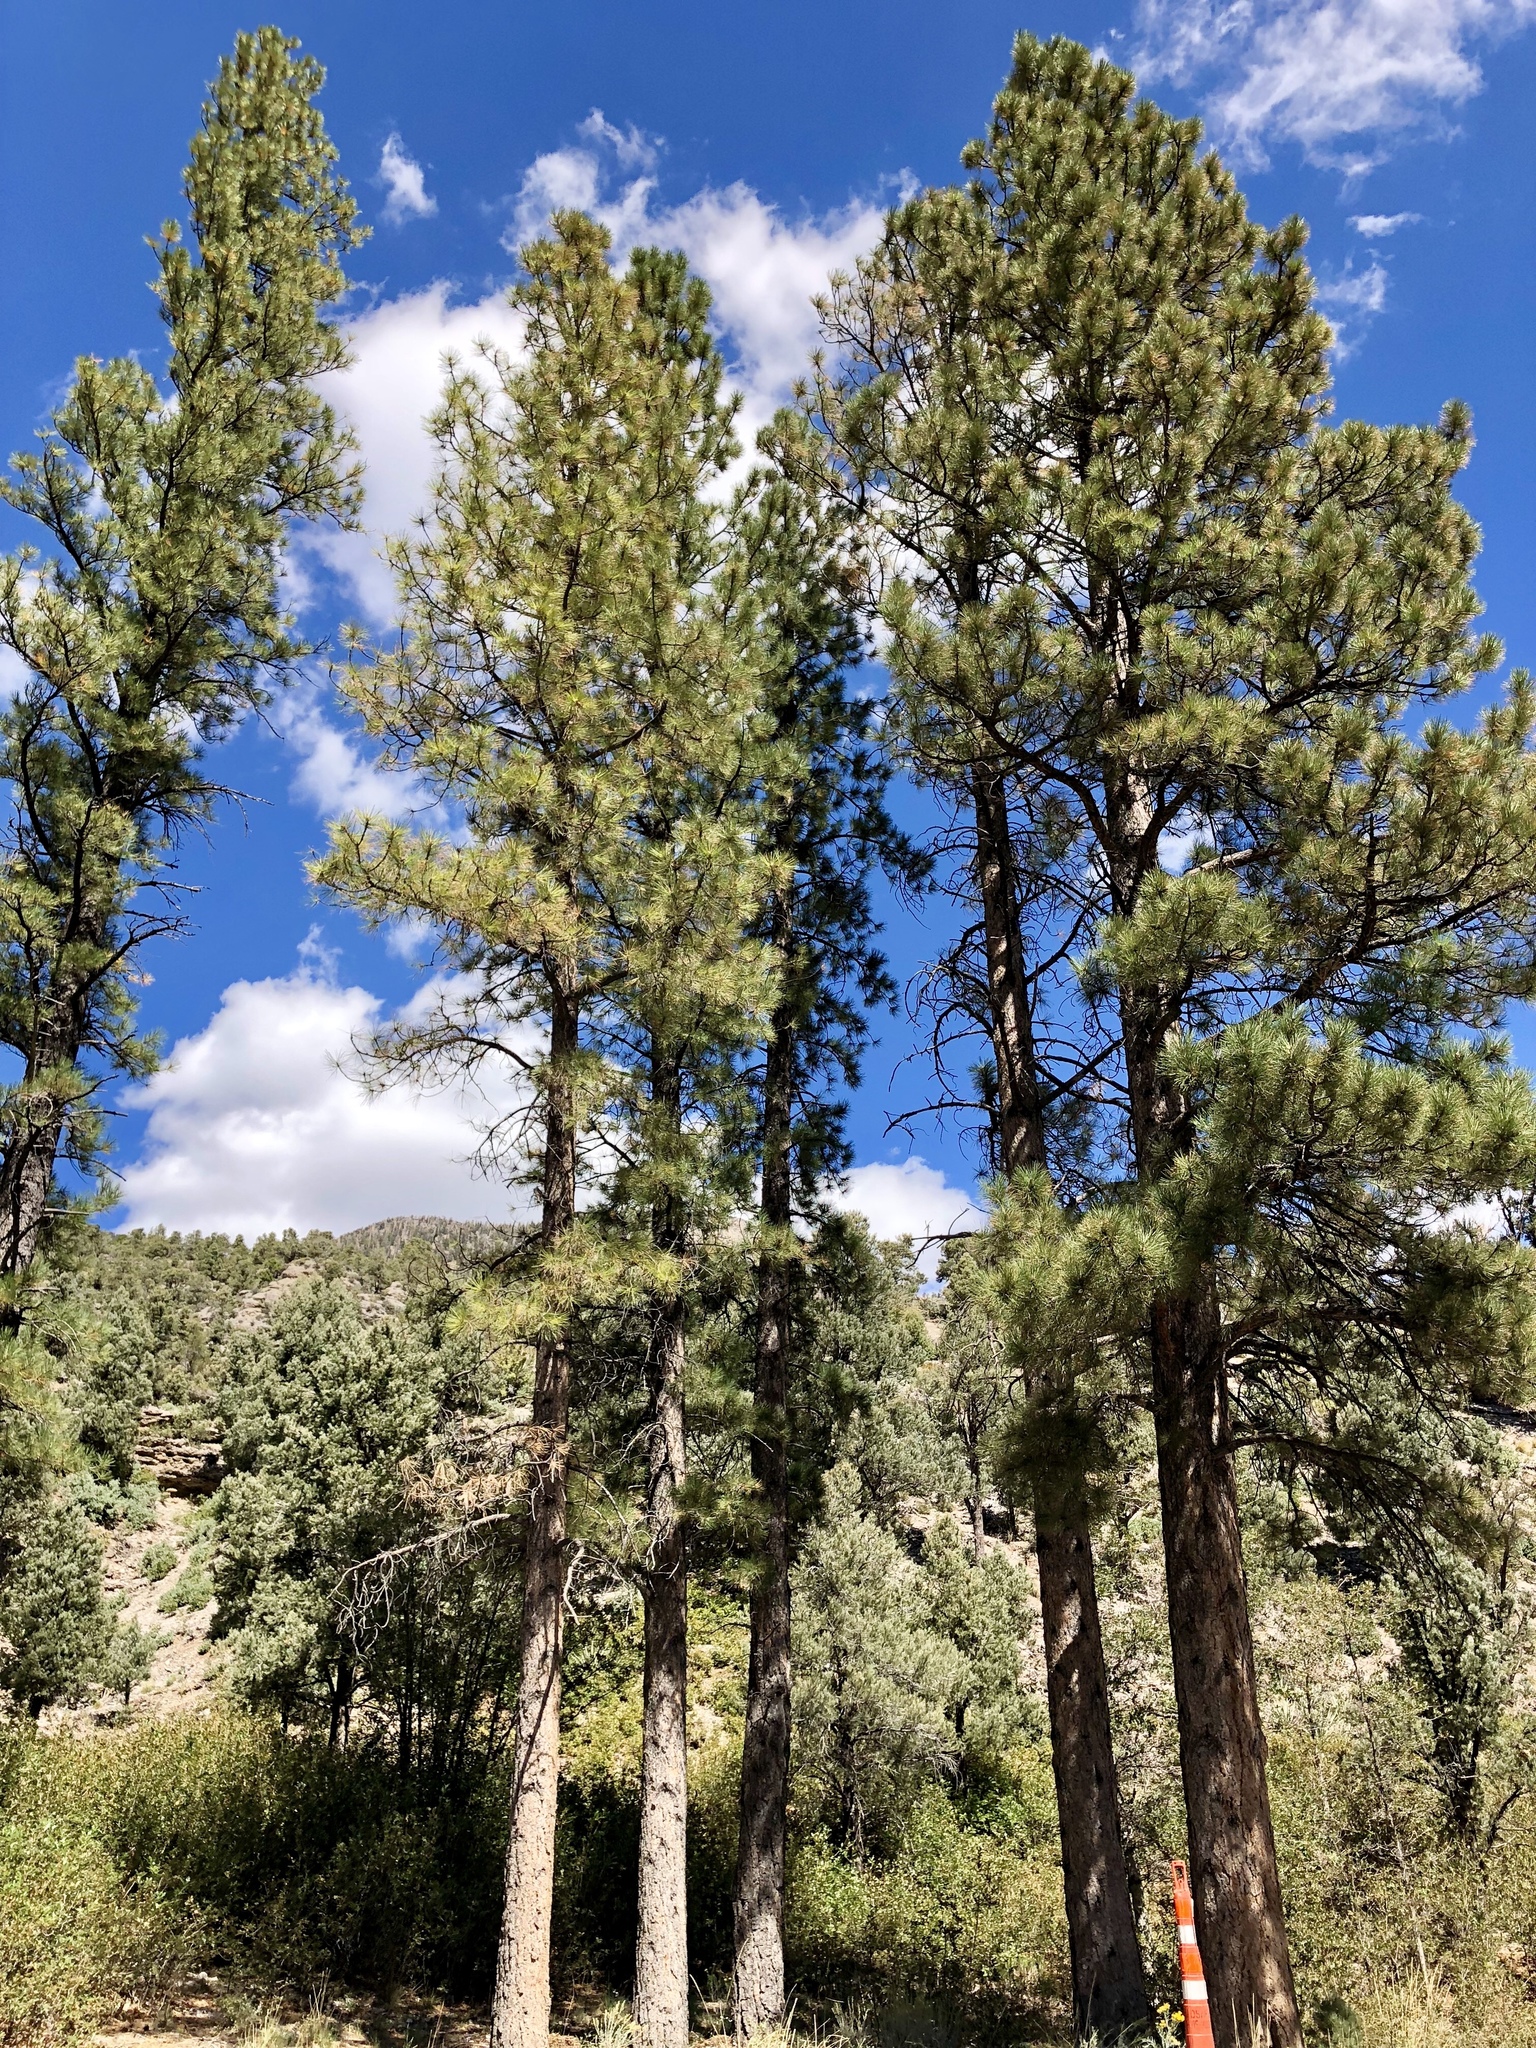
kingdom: Plantae
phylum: Tracheophyta
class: Pinopsida
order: Pinales
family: Pinaceae
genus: Pinus
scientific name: Pinus ponderosa
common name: Western yellow-pine
